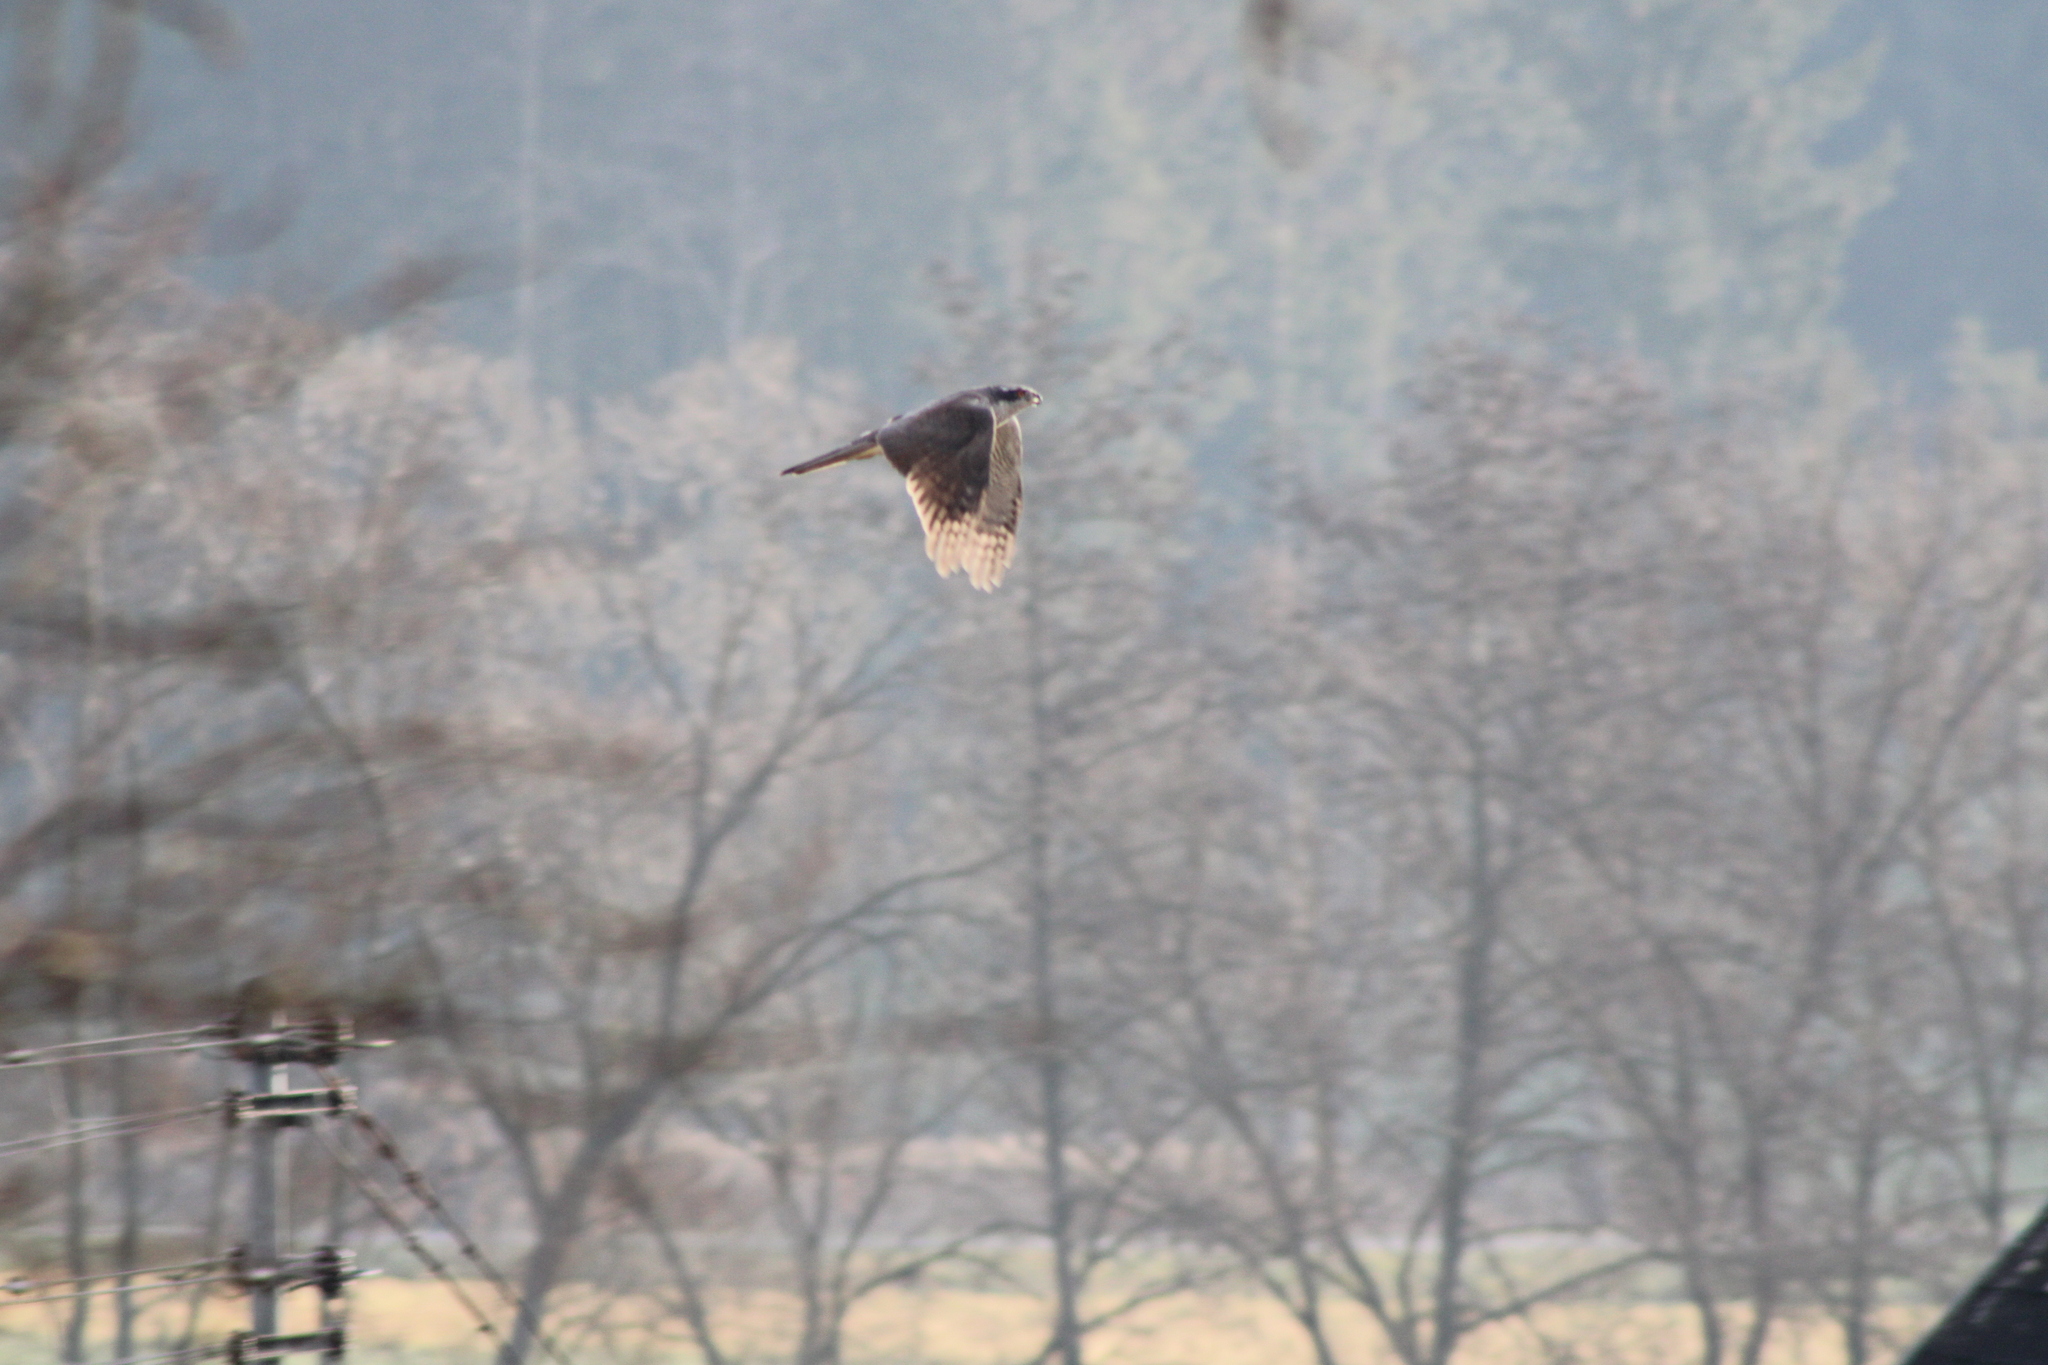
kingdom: Animalia
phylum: Chordata
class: Aves
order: Accipitriformes
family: Accipitridae
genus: Accipiter
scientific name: Accipiter gentilis
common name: Northern goshawk
